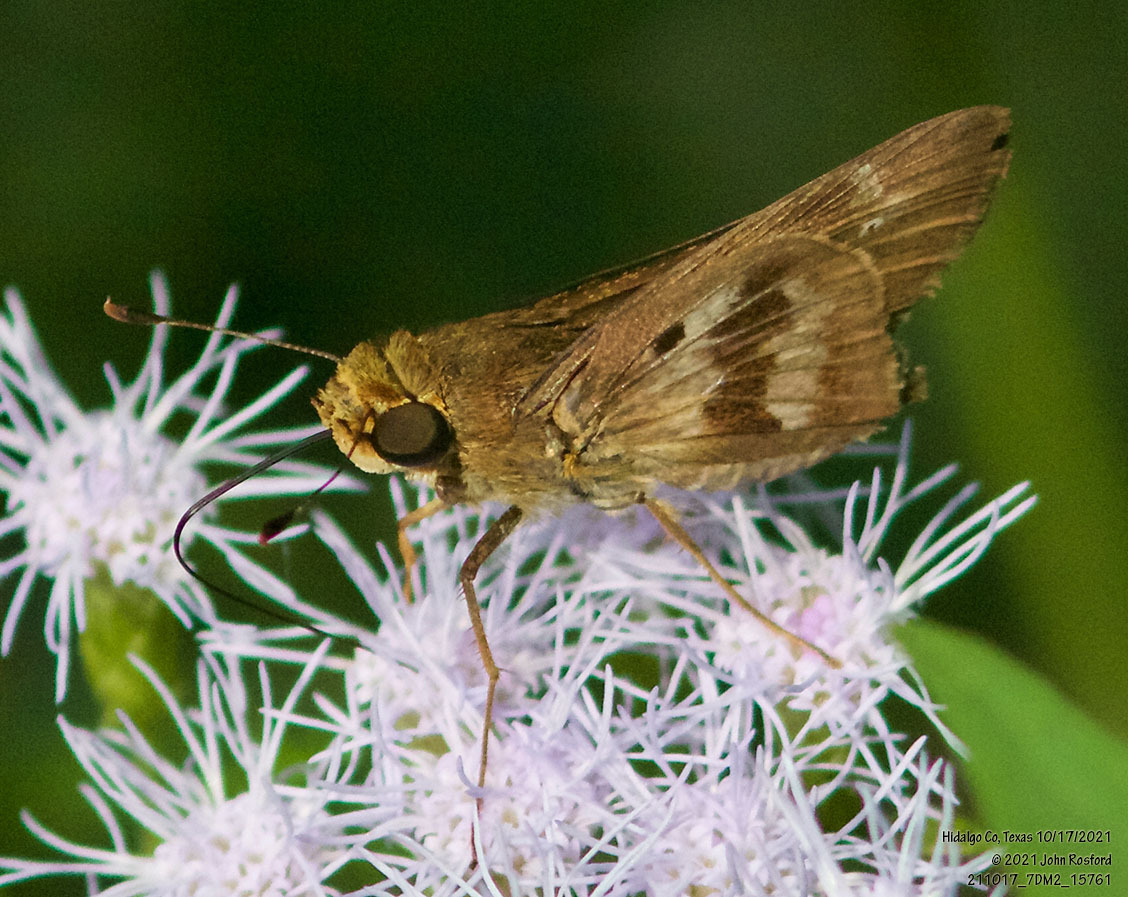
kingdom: Animalia
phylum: Arthropoda
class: Insecta
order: Lepidoptera
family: Hesperiidae
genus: Nyctelius
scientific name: Nyctelius nyctelius
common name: Violet-banded skipper
